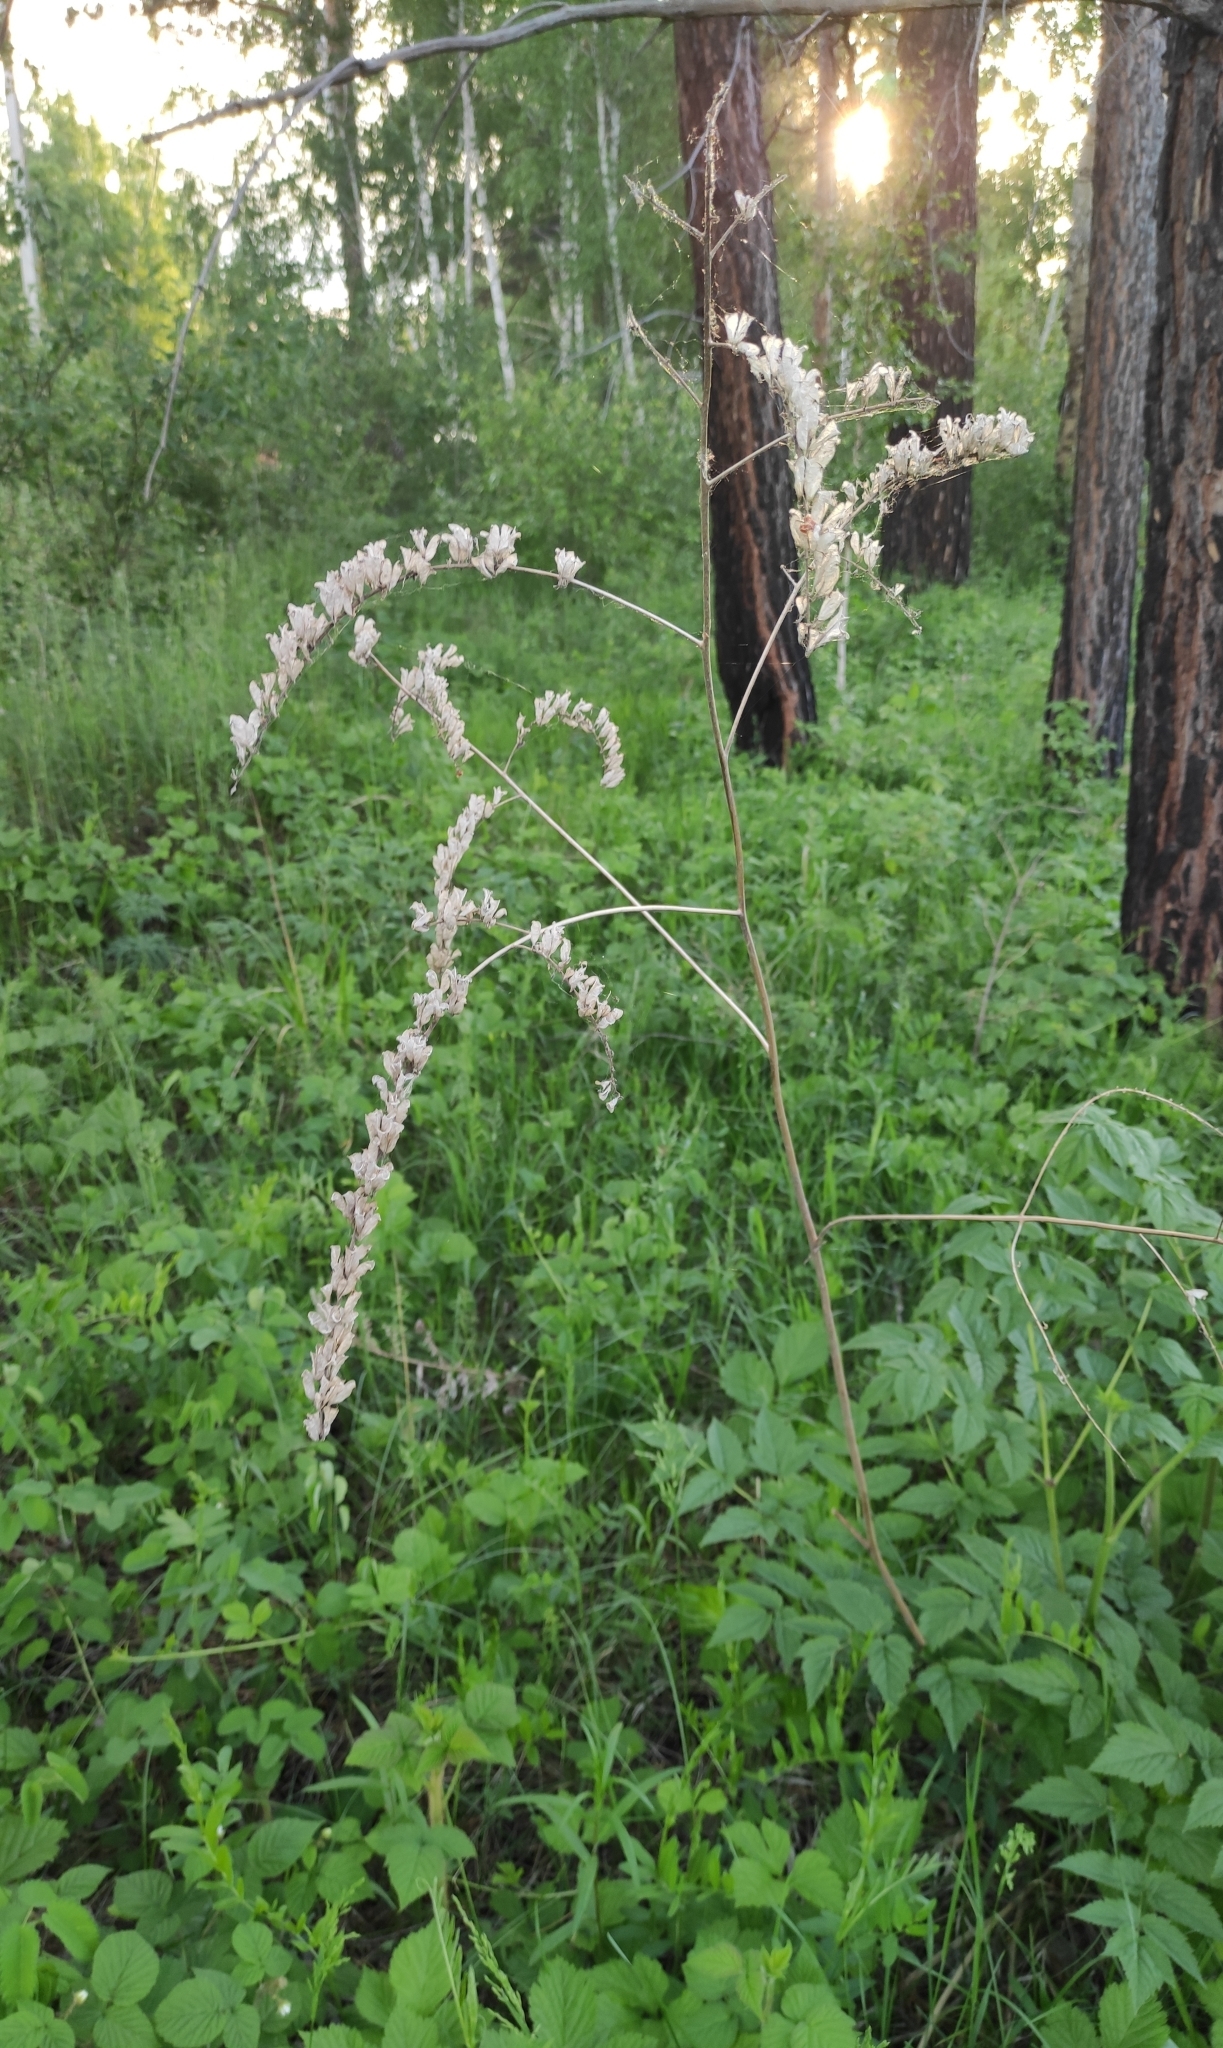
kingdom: Plantae
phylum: Tracheophyta
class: Magnoliopsida
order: Ranunculales
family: Ranunculaceae
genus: Actaea
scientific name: Actaea cimicifuga
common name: Chinese cimicifuga
